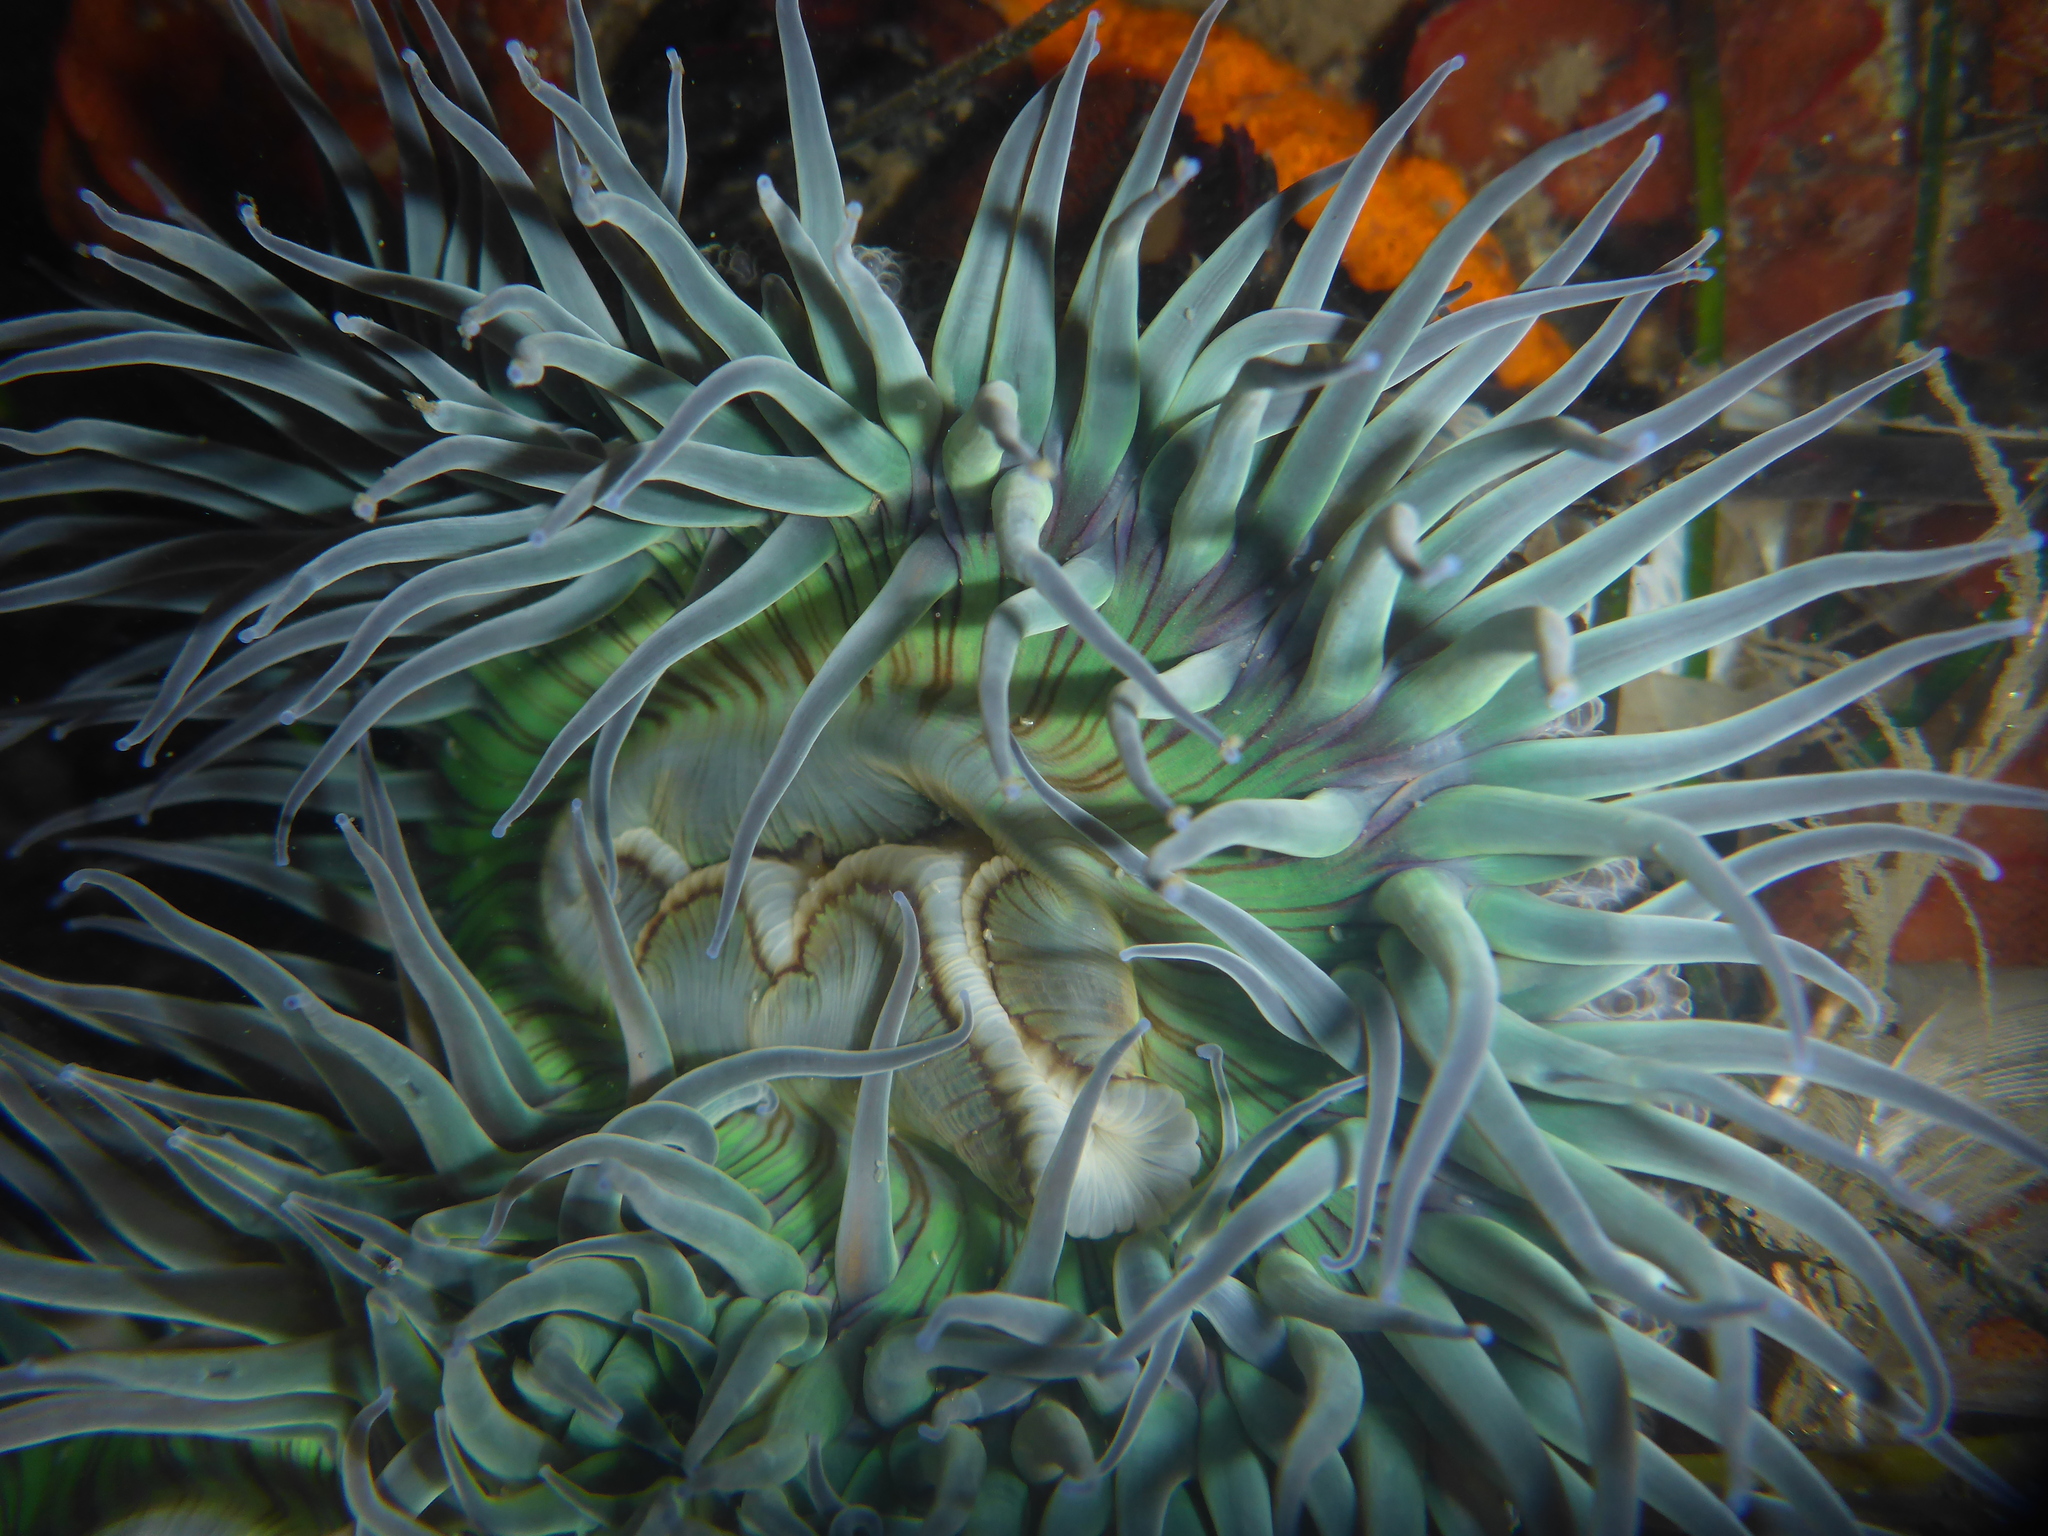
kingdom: Animalia
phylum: Cnidaria
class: Anthozoa
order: Actiniaria
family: Actiniidae
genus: Anthopleura
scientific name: Anthopleura sola
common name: Sun anemone
